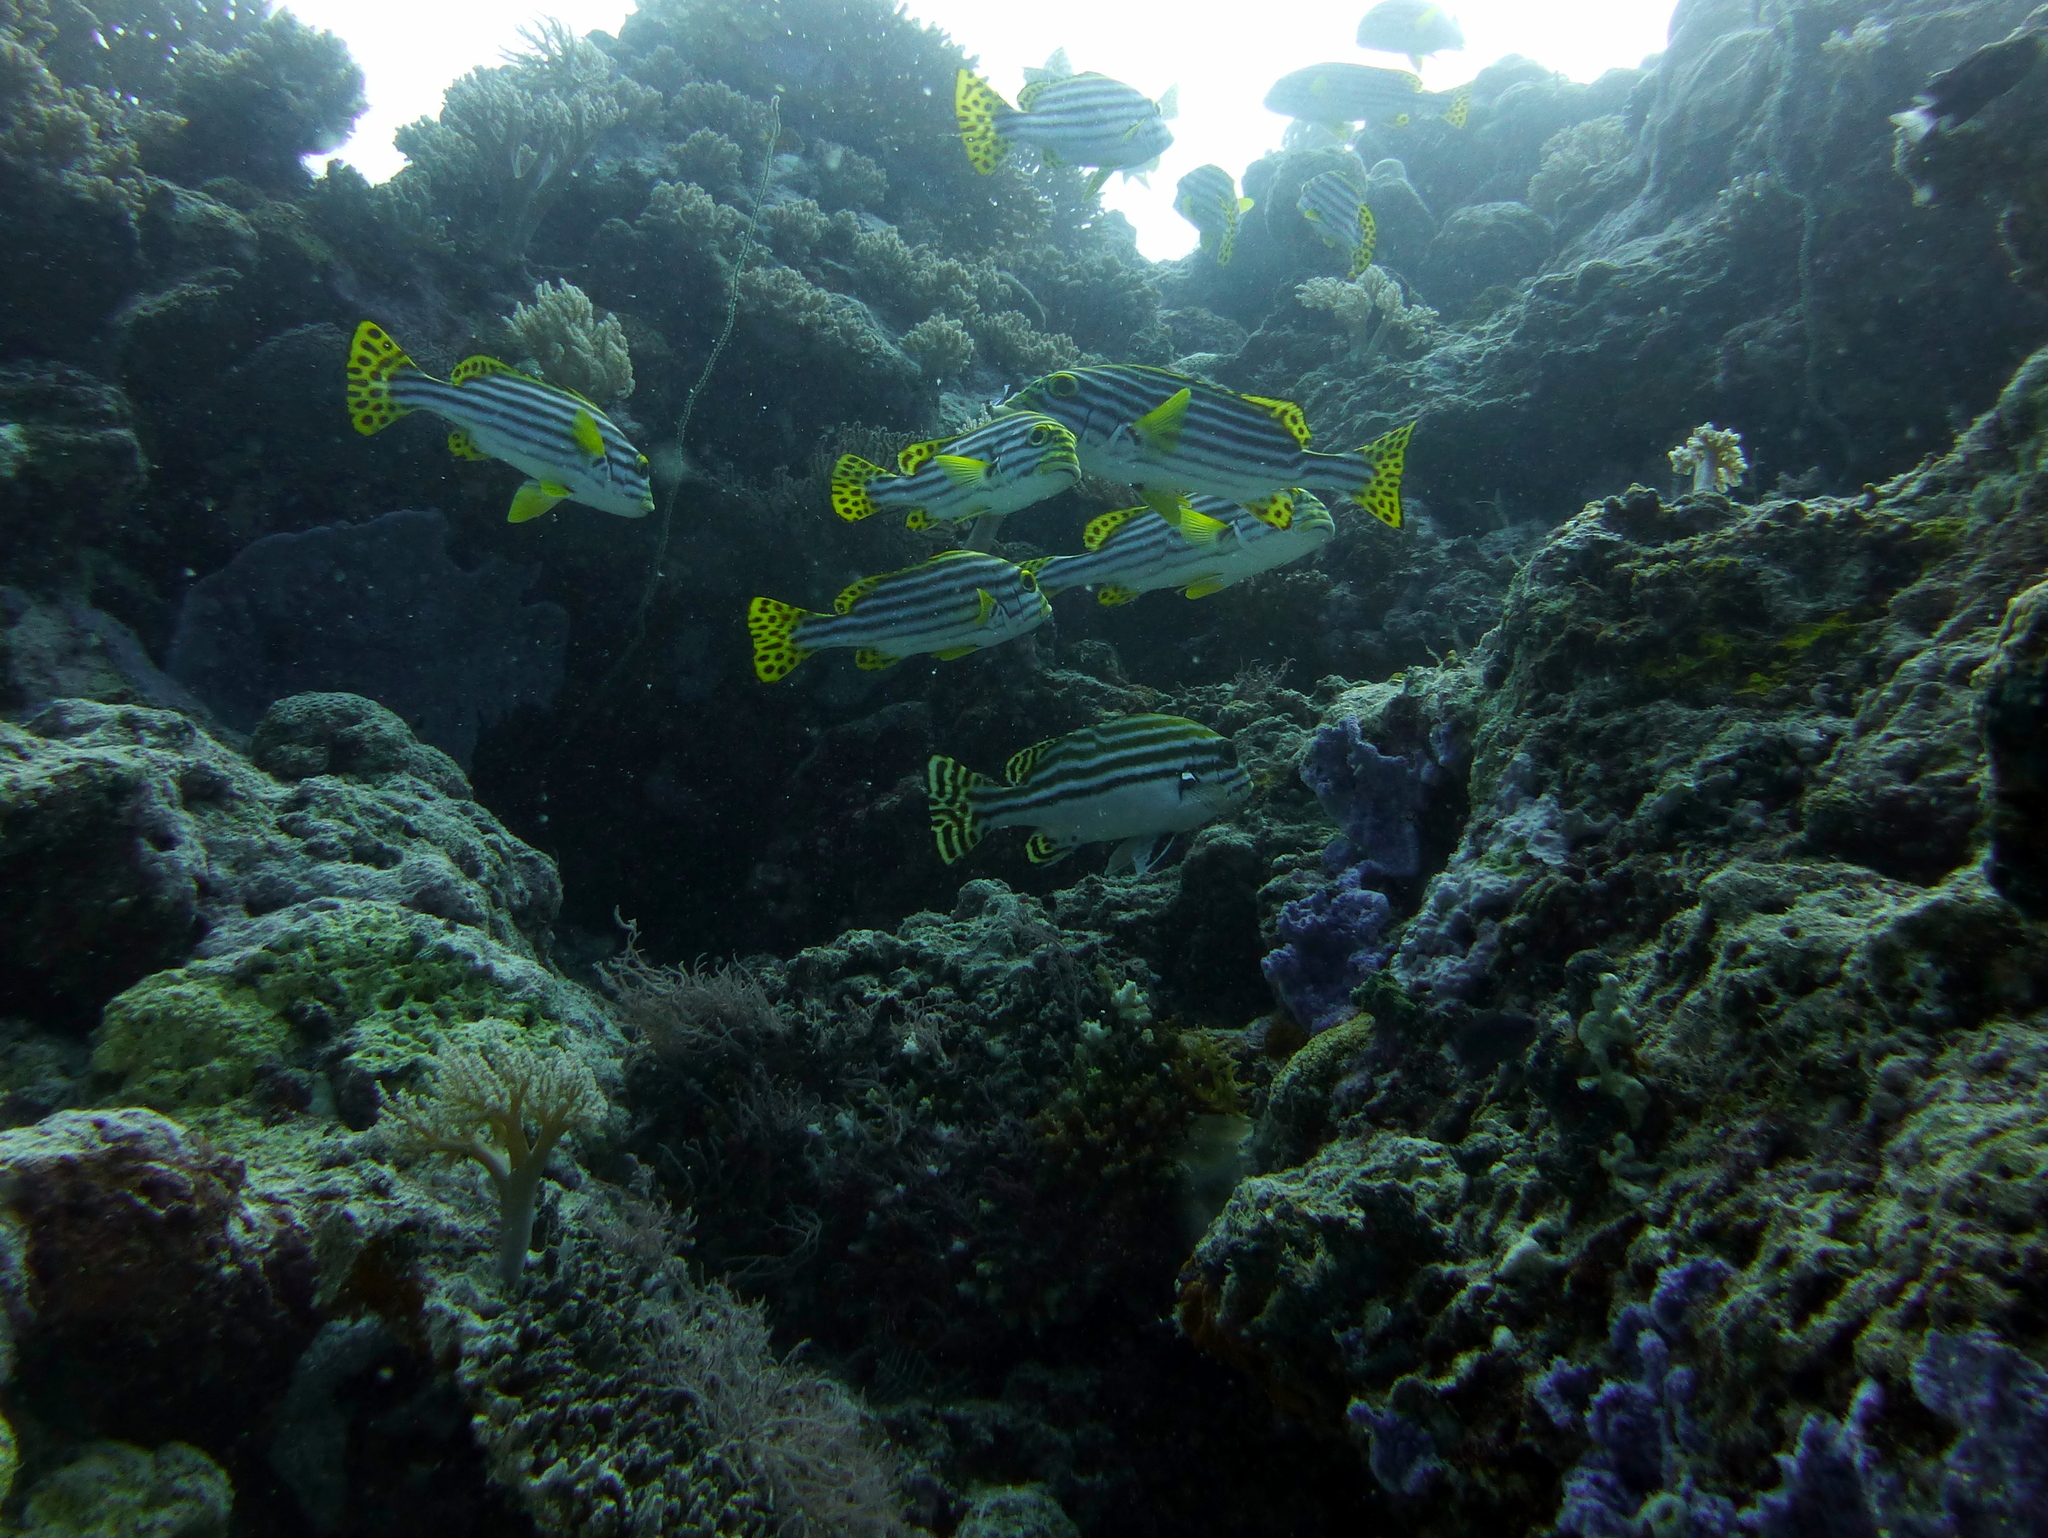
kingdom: Animalia
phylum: Chordata
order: Perciformes
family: Haemulidae
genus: Plectorhinchus
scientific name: Plectorhinchus vittatus
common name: Oriental sweetlips
